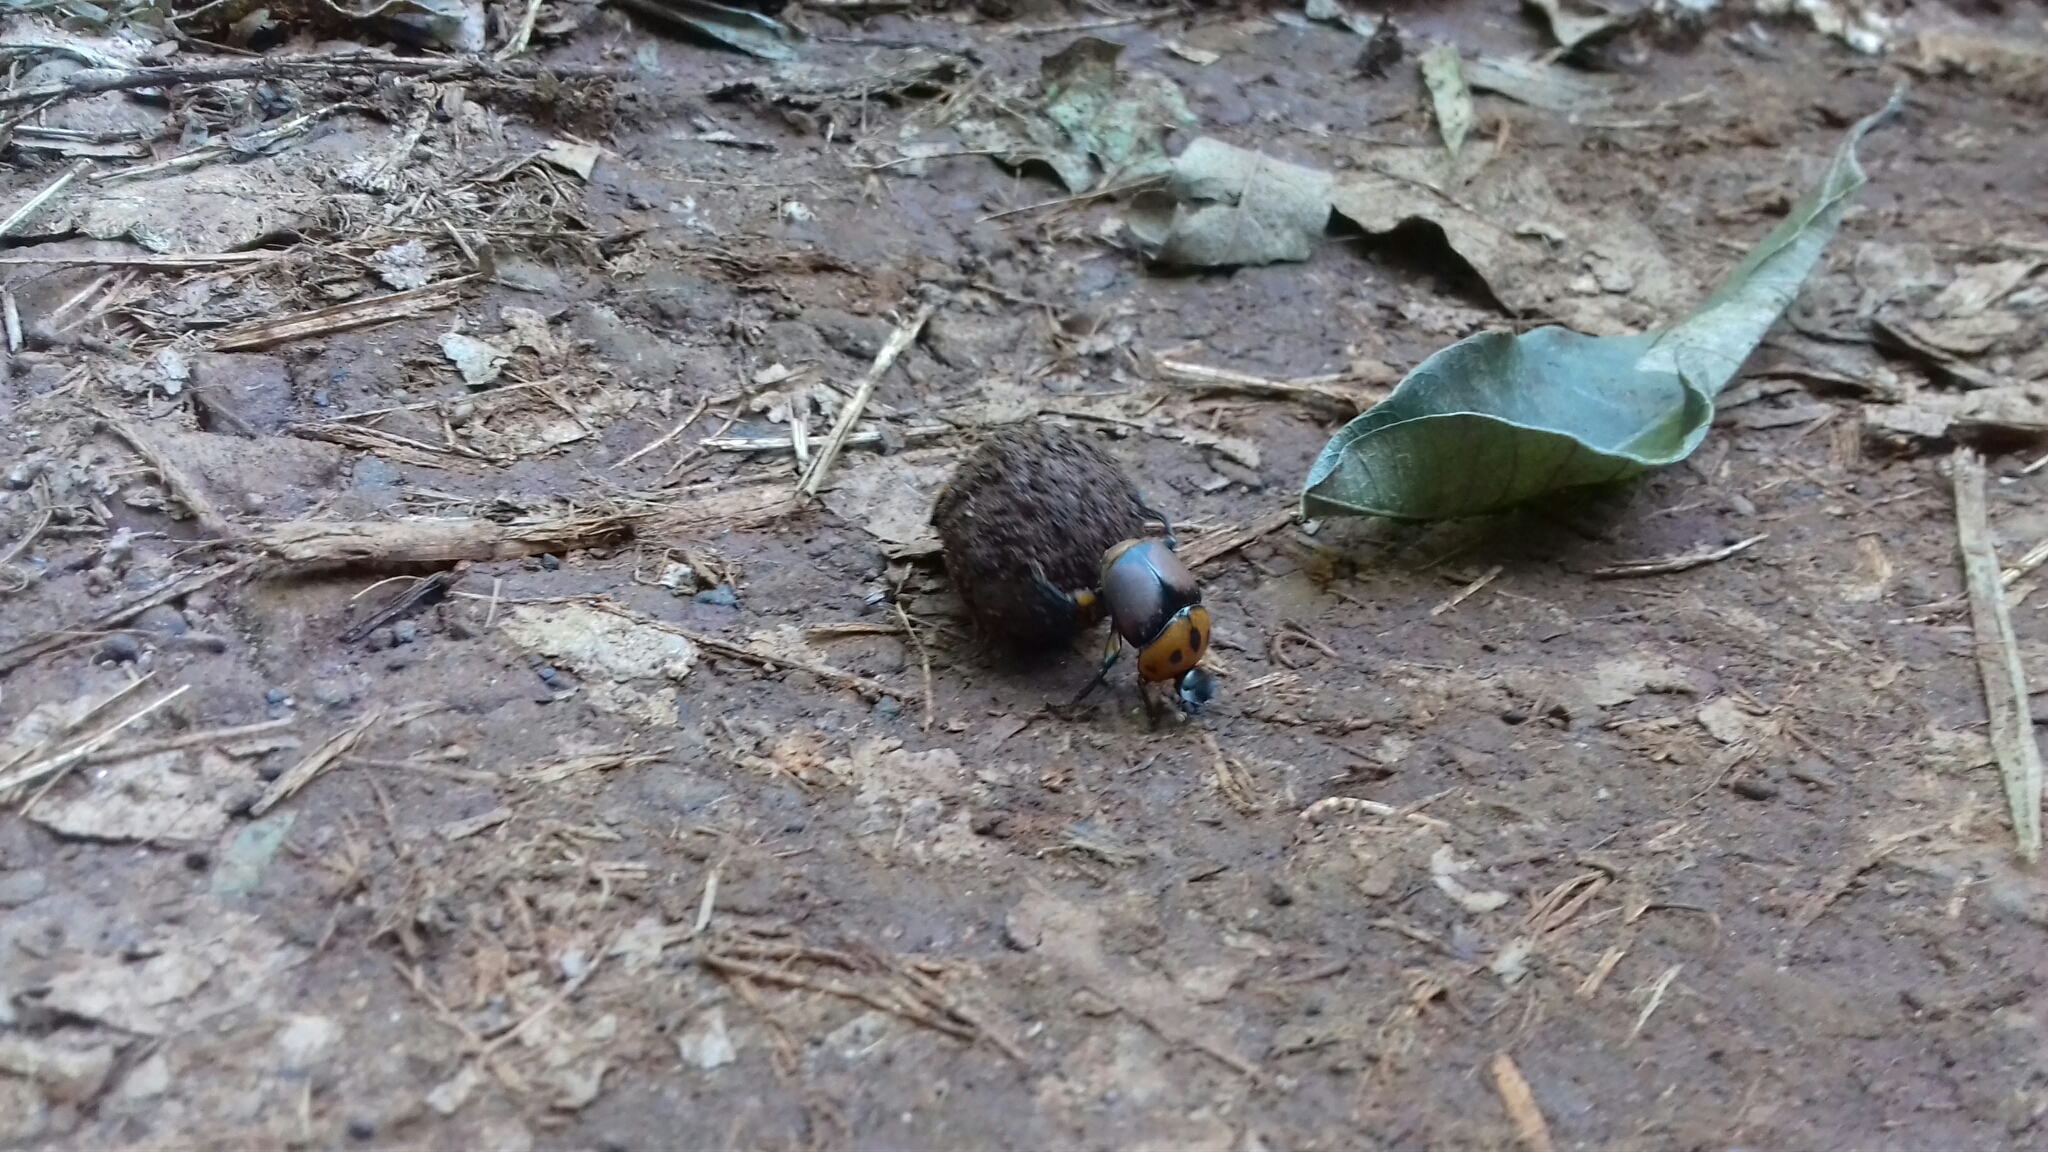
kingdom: Animalia
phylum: Arthropoda
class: Insecta
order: Coleoptera
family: Scarabaeidae
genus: Canthon
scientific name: Canthon quinquemaculatus
